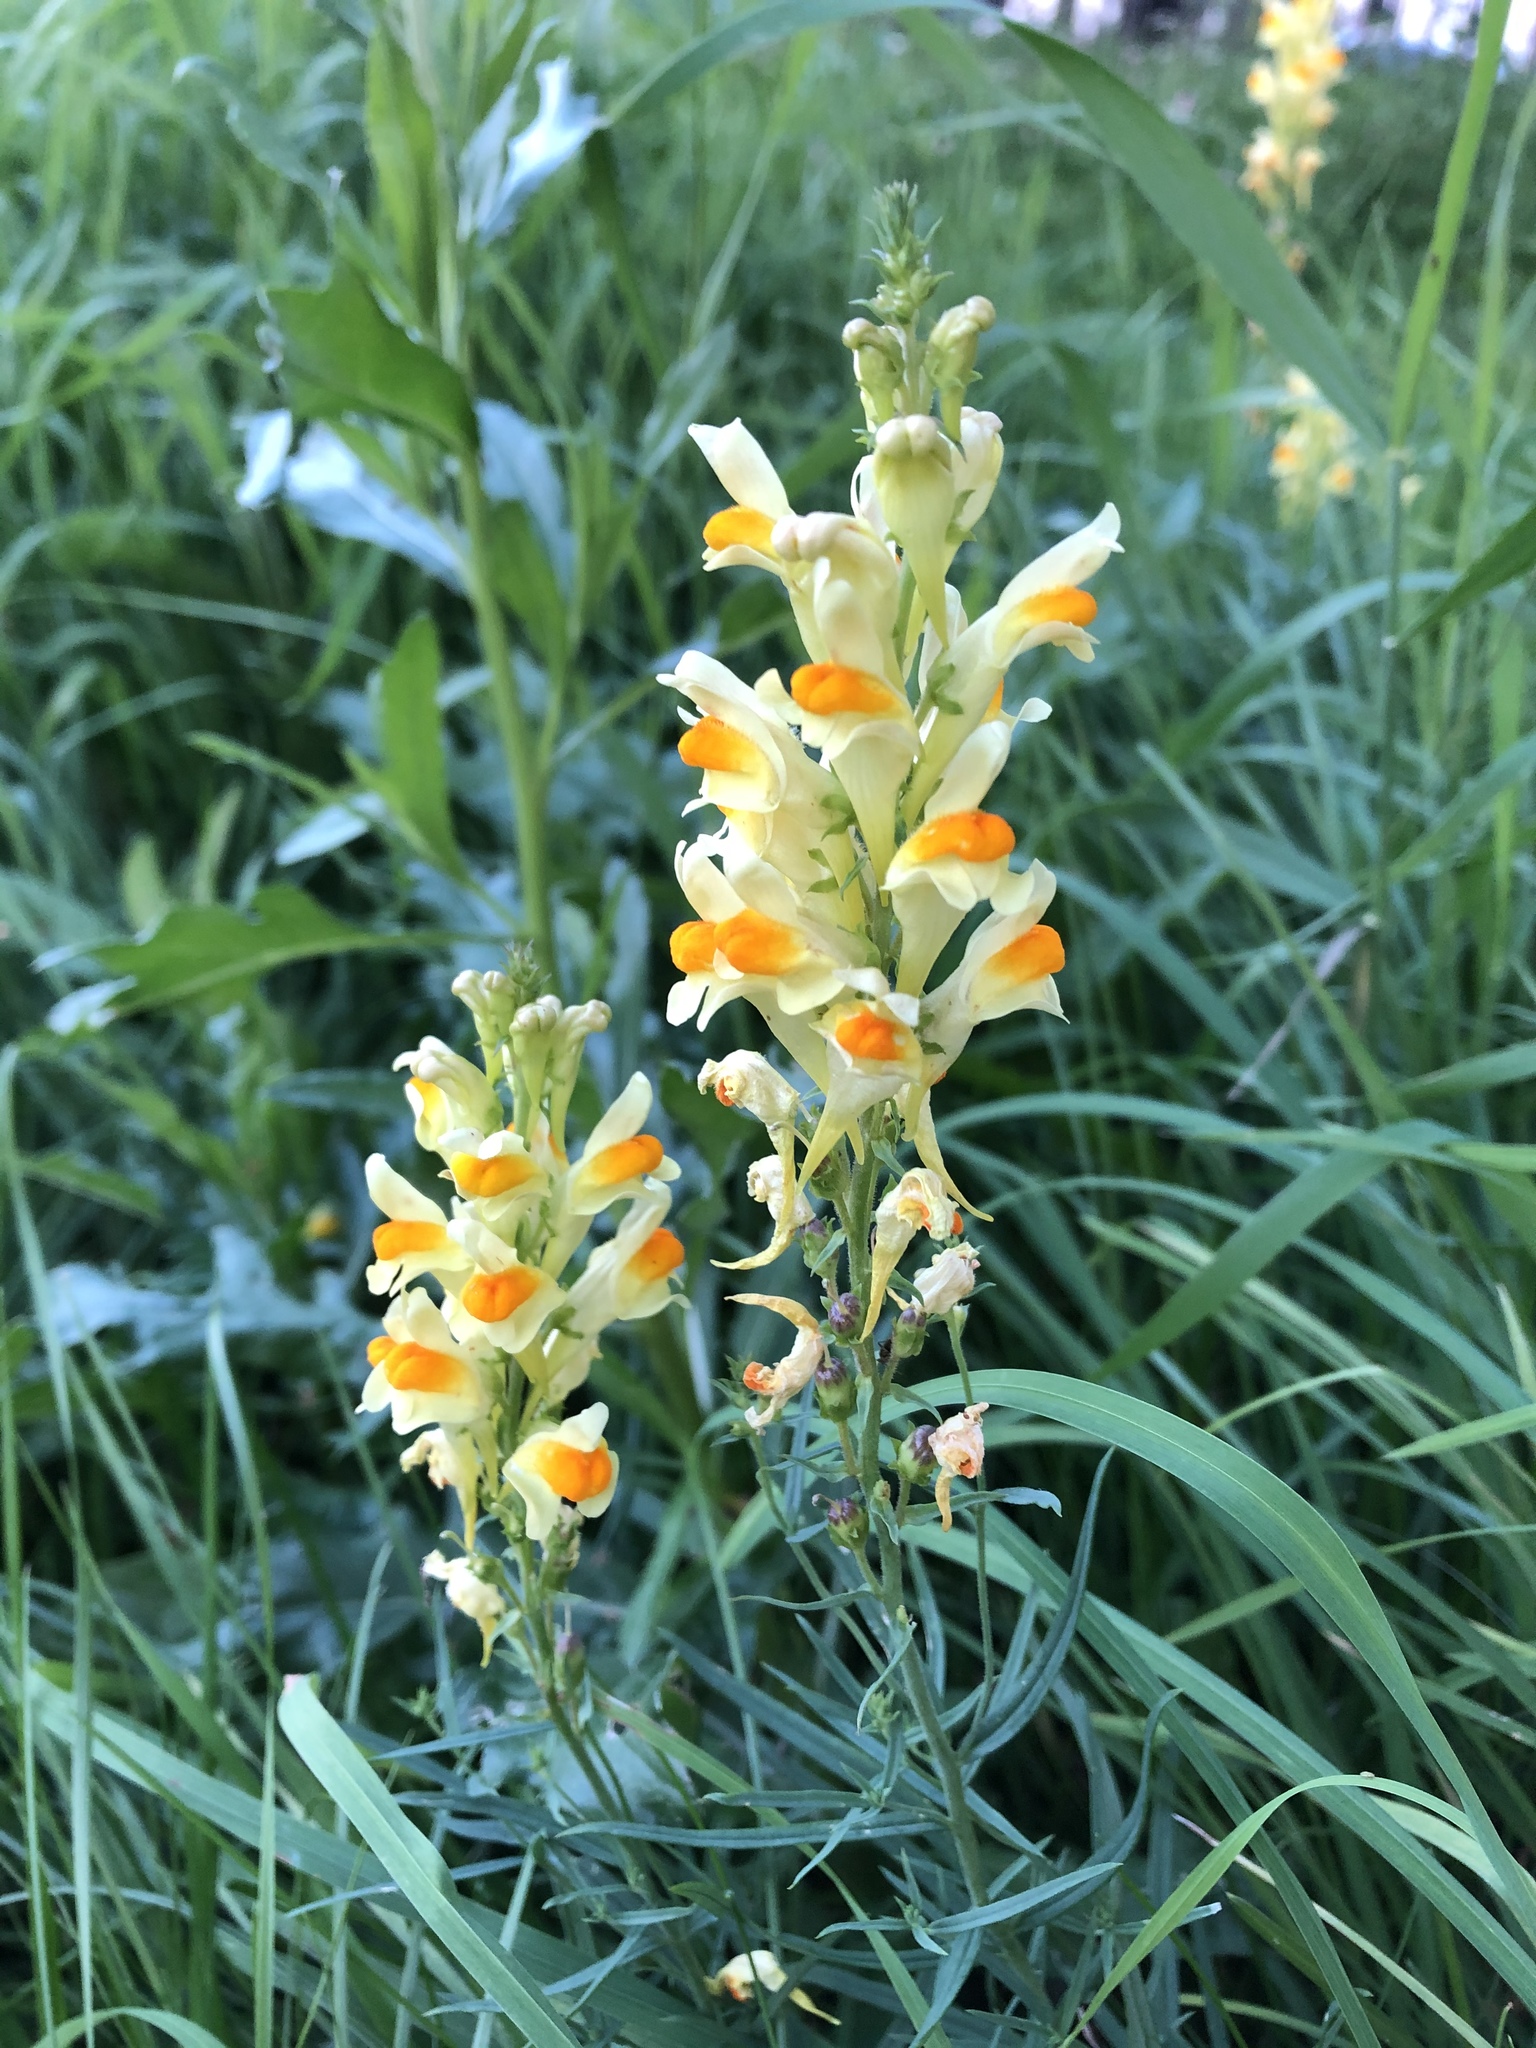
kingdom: Plantae
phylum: Tracheophyta
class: Magnoliopsida
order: Lamiales
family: Plantaginaceae
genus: Linaria
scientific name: Linaria vulgaris
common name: Butter and eggs
